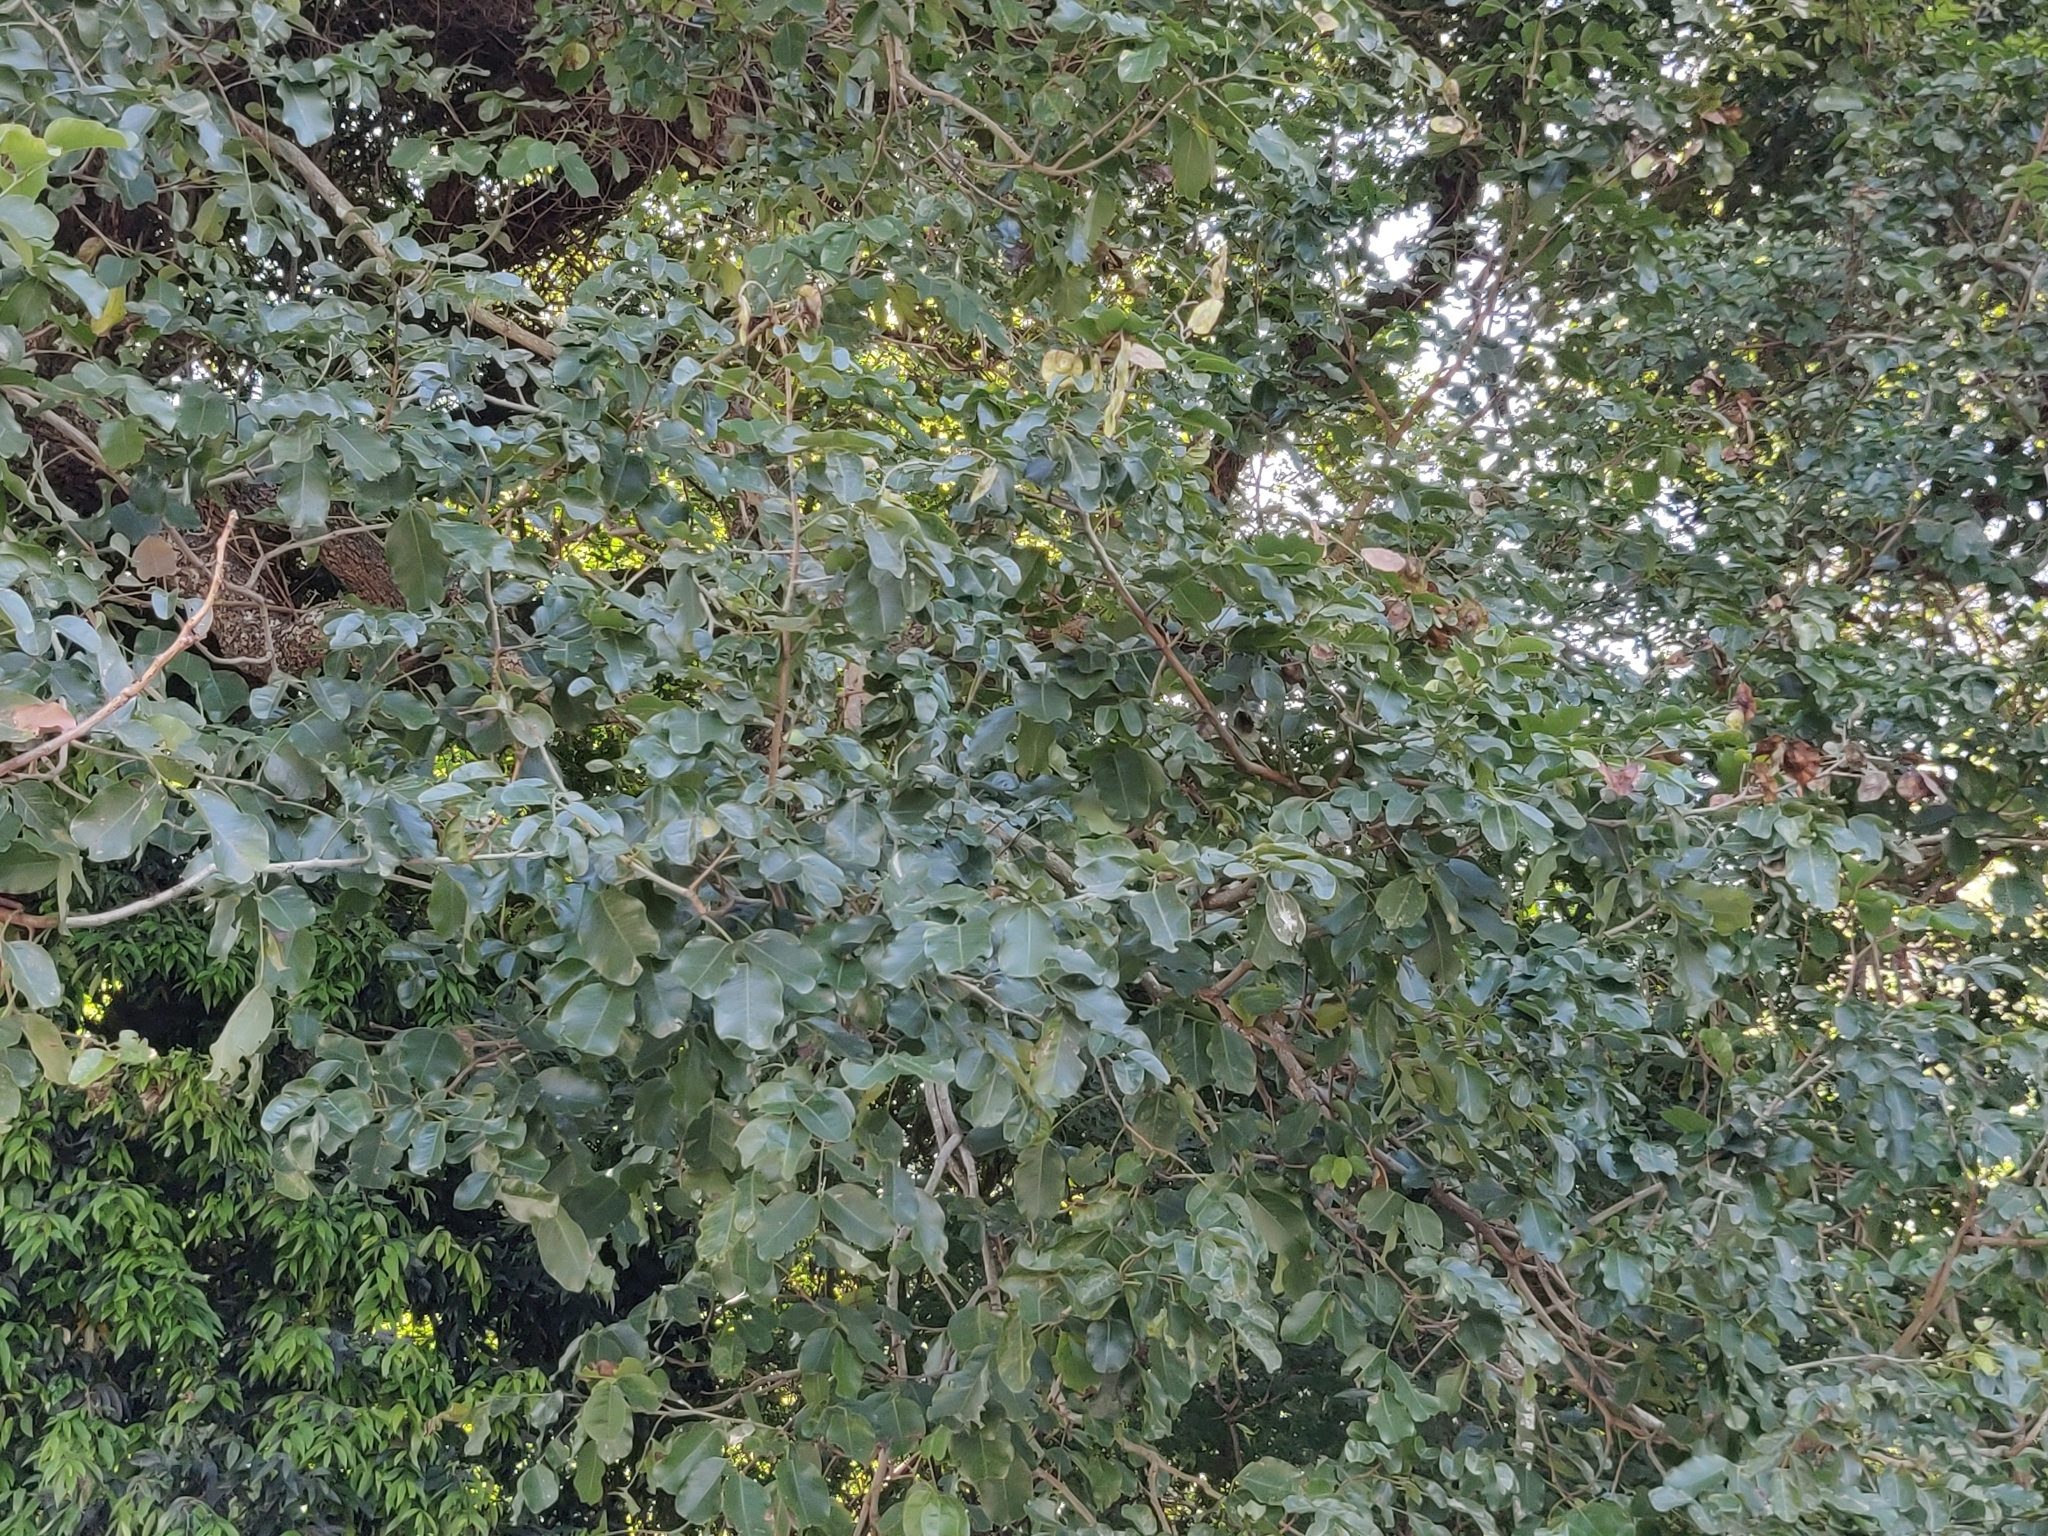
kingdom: Plantae
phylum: Tracheophyta
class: Magnoliopsida
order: Fabales
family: Fabaceae
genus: Pterocarpus
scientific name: Pterocarpus marsupium
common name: East indian/malabar kino
